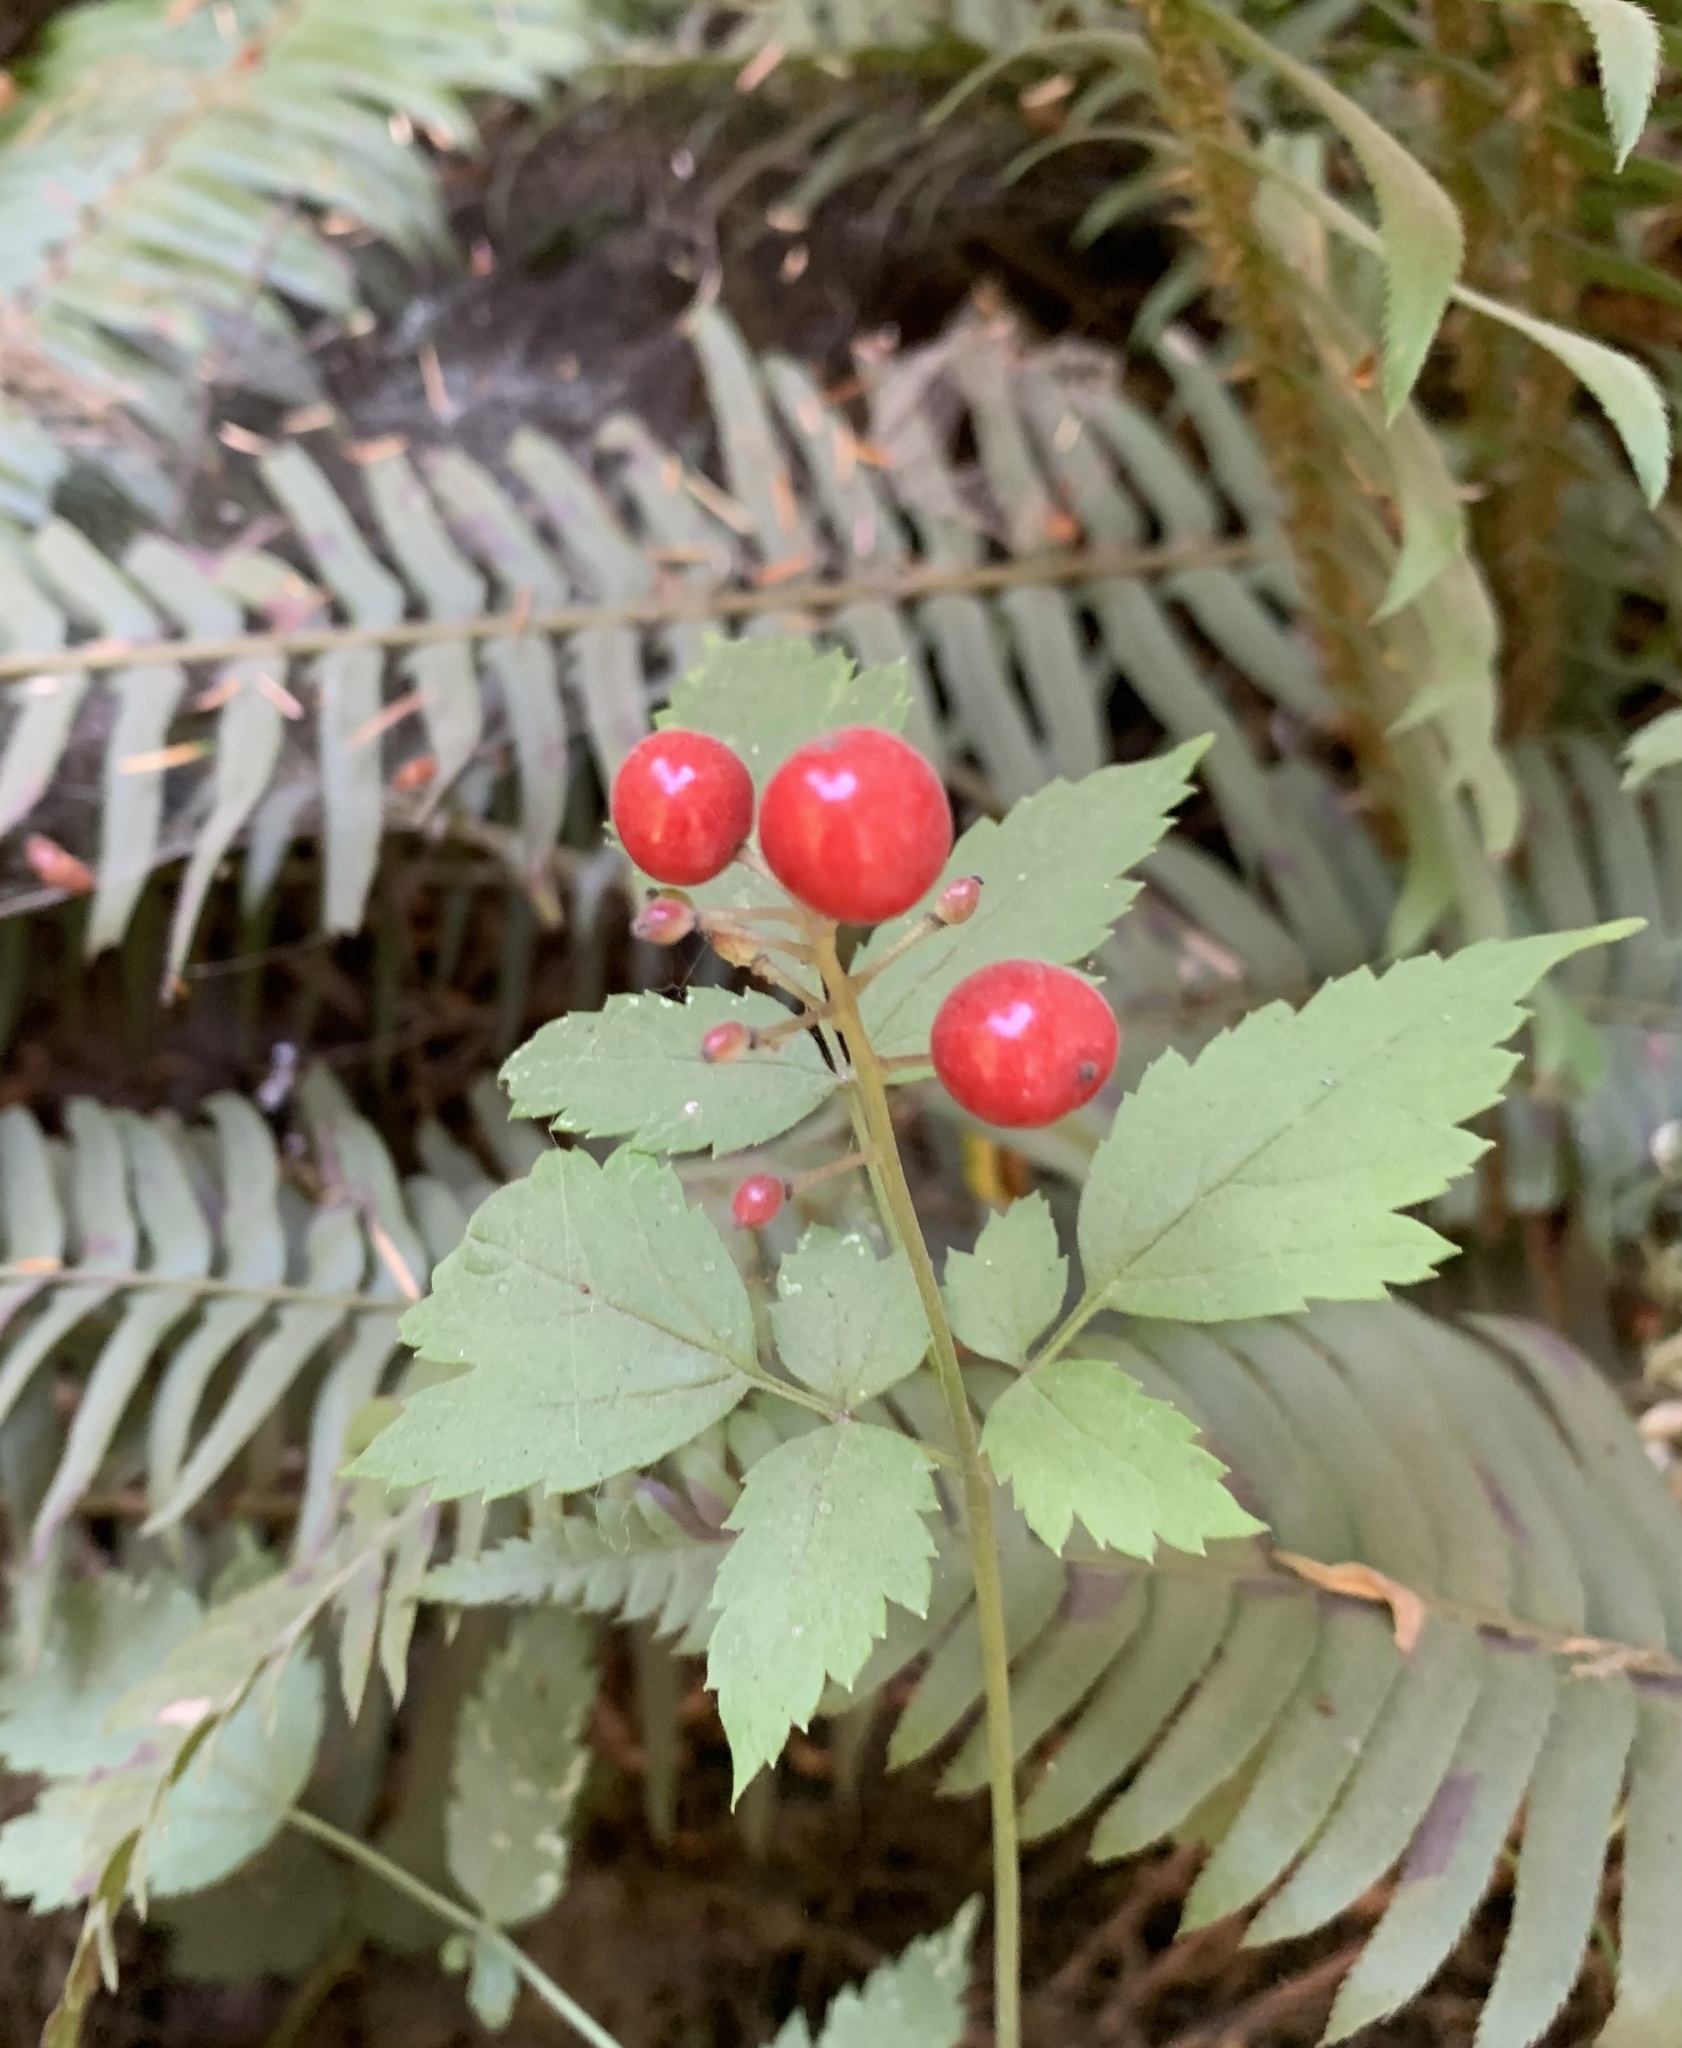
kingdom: Plantae
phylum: Tracheophyta
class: Magnoliopsida
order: Ranunculales
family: Ranunculaceae
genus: Actaea
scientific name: Actaea rubra
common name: Red baneberry
